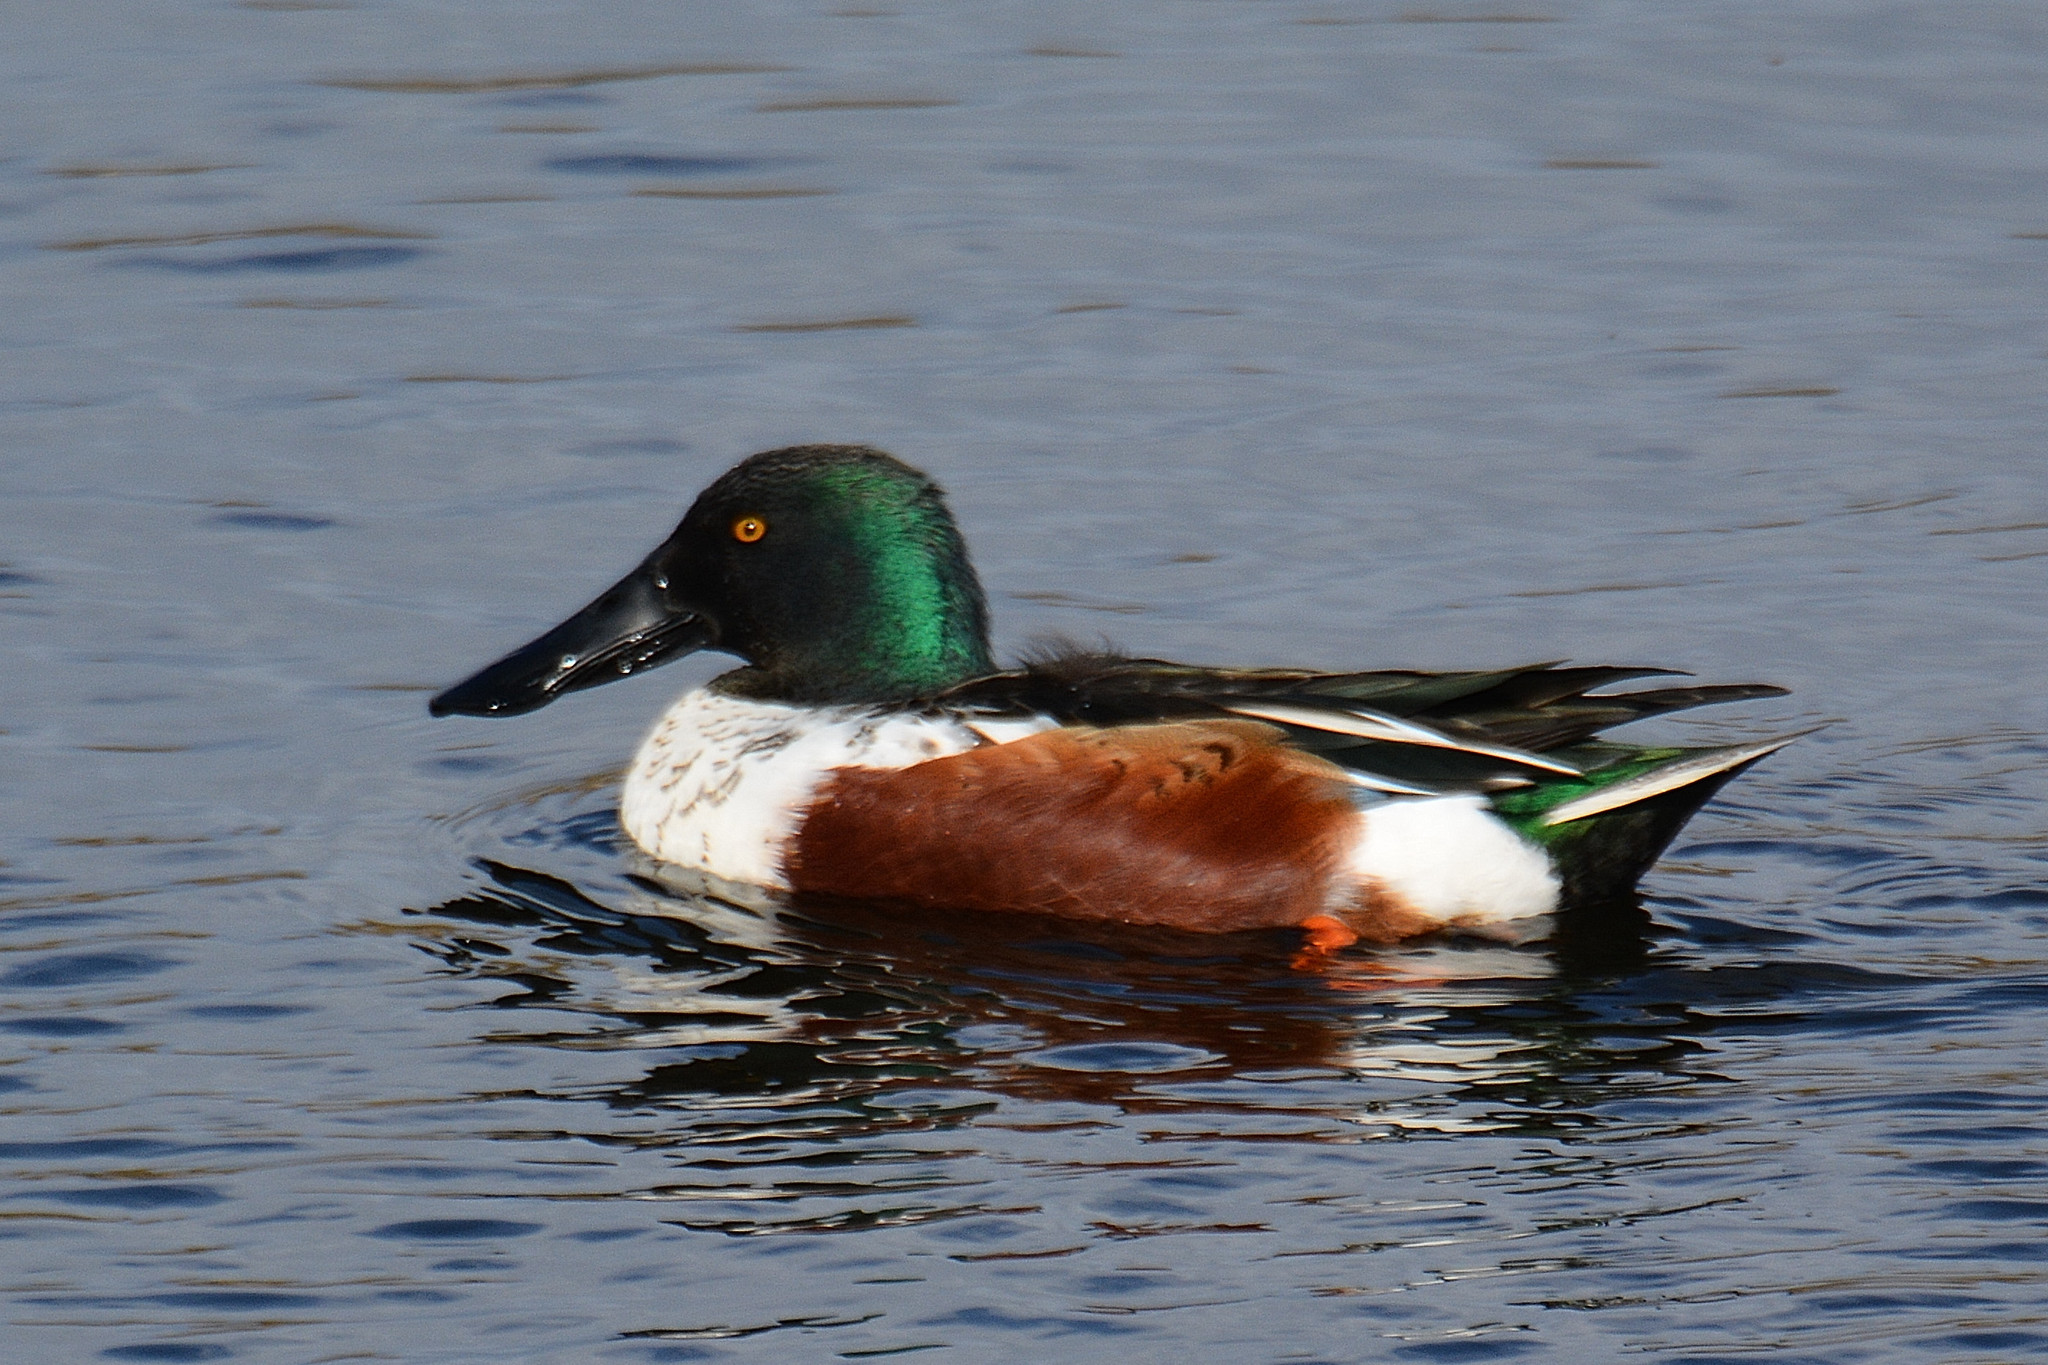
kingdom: Animalia
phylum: Chordata
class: Aves
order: Anseriformes
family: Anatidae
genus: Spatula
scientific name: Spatula clypeata
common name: Northern shoveler
